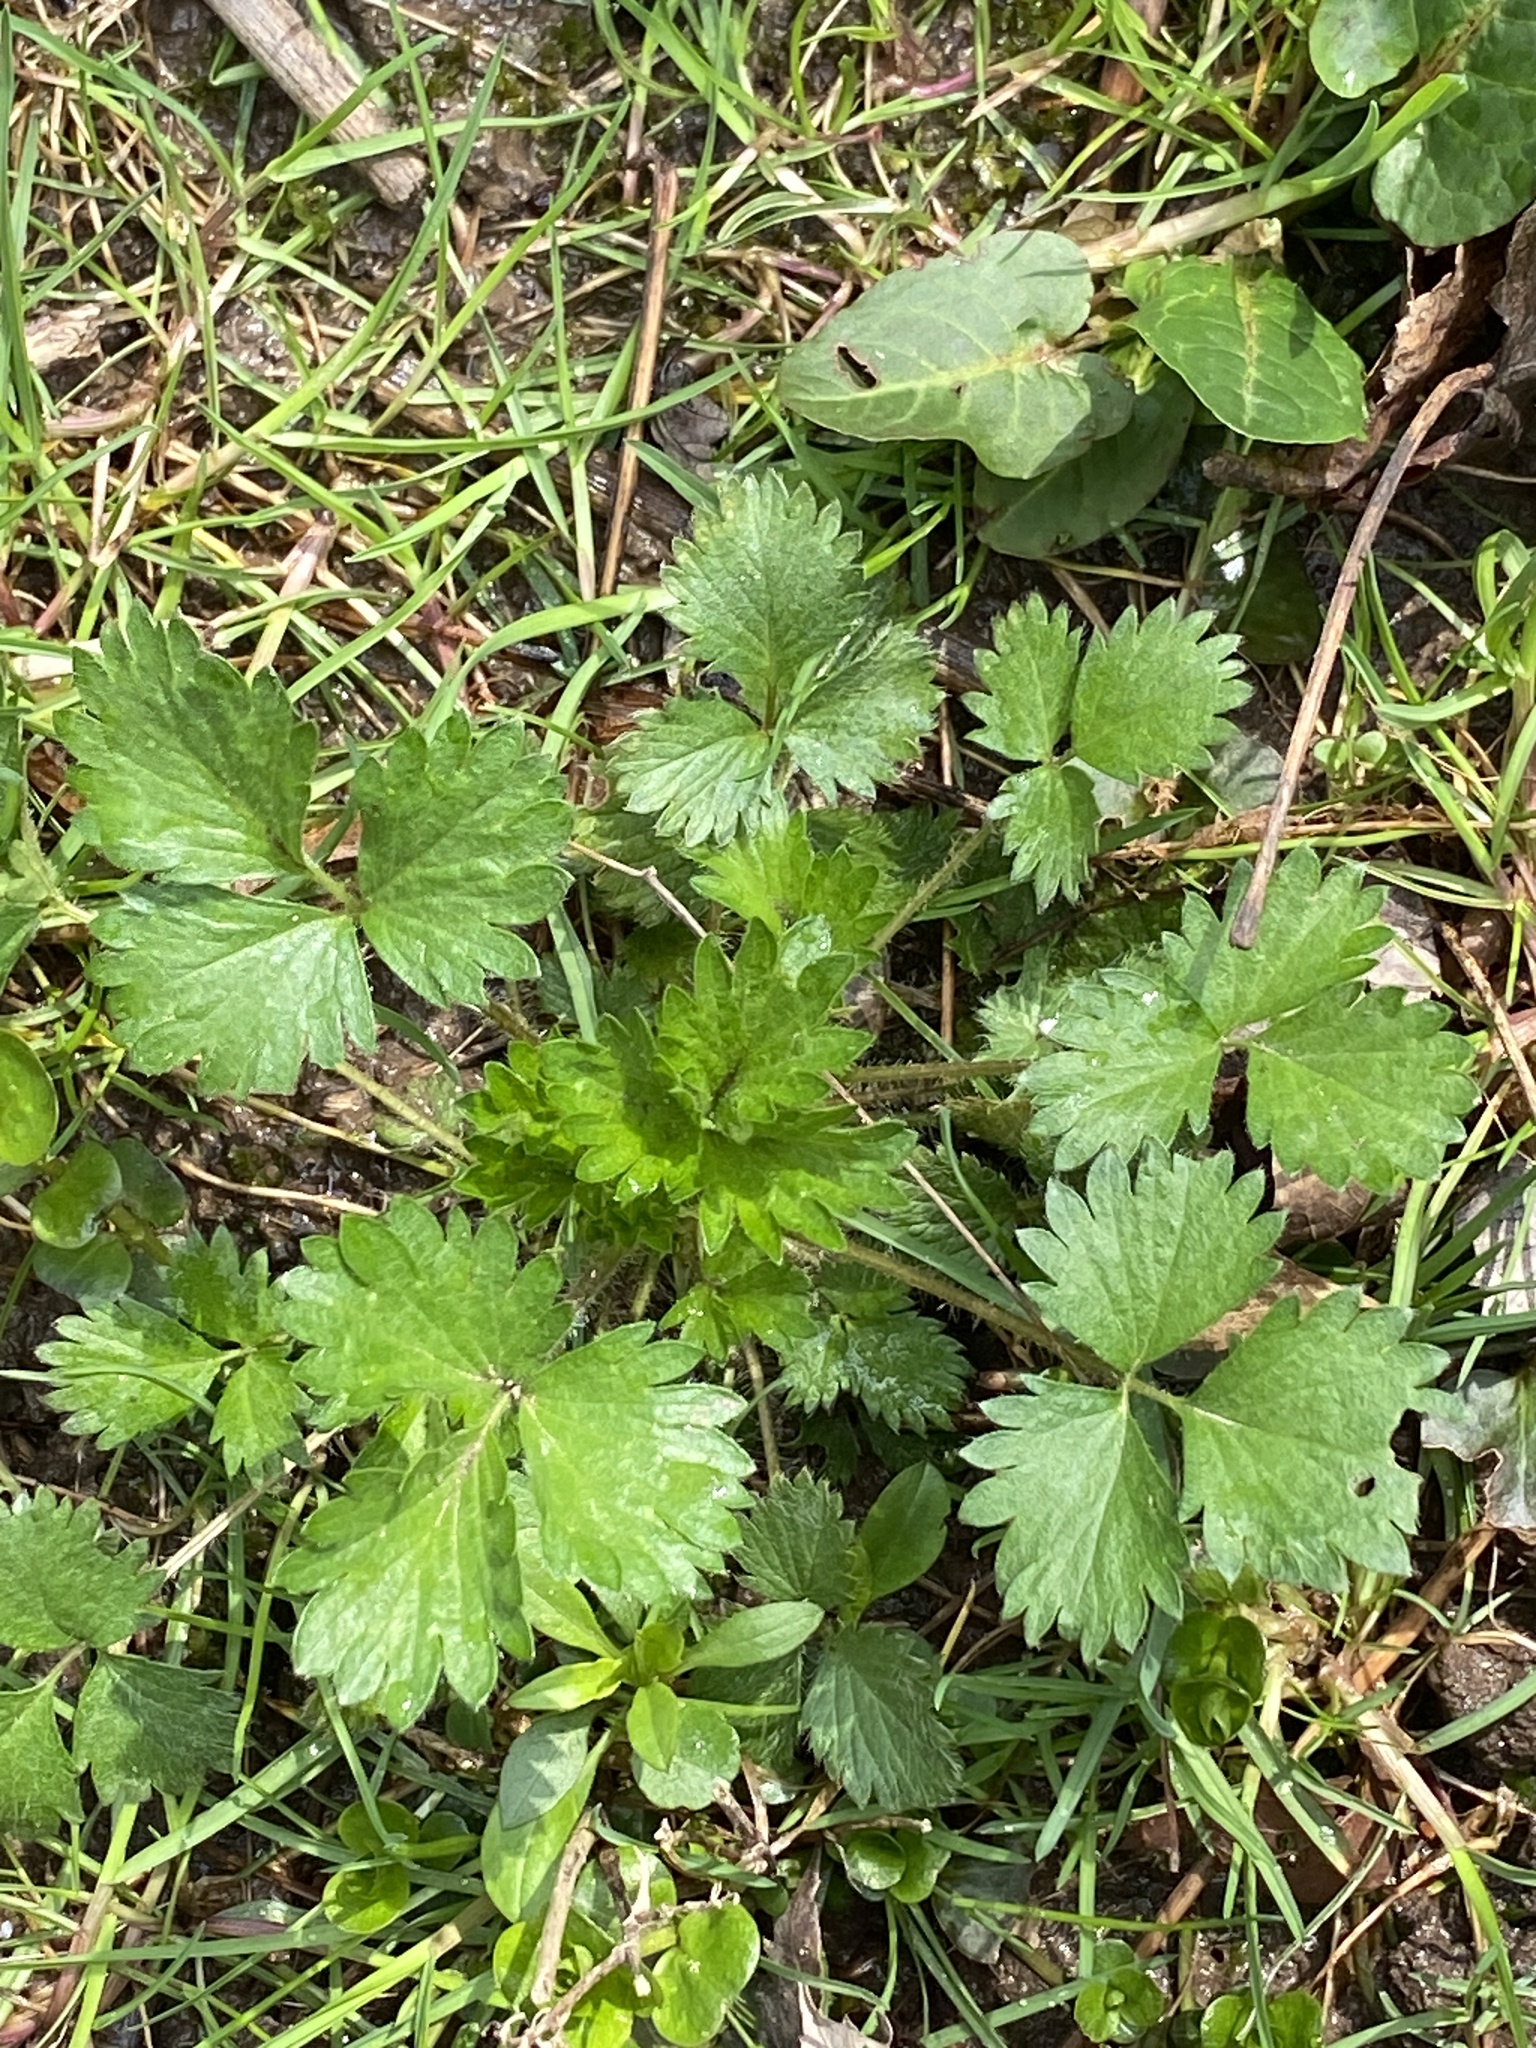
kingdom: Plantae
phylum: Tracheophyta
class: Magnoliopsida
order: Rosales
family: Rosaceae
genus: Potentilla
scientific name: Potentilla norvegica
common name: Ternate-leaved cinquefoil
